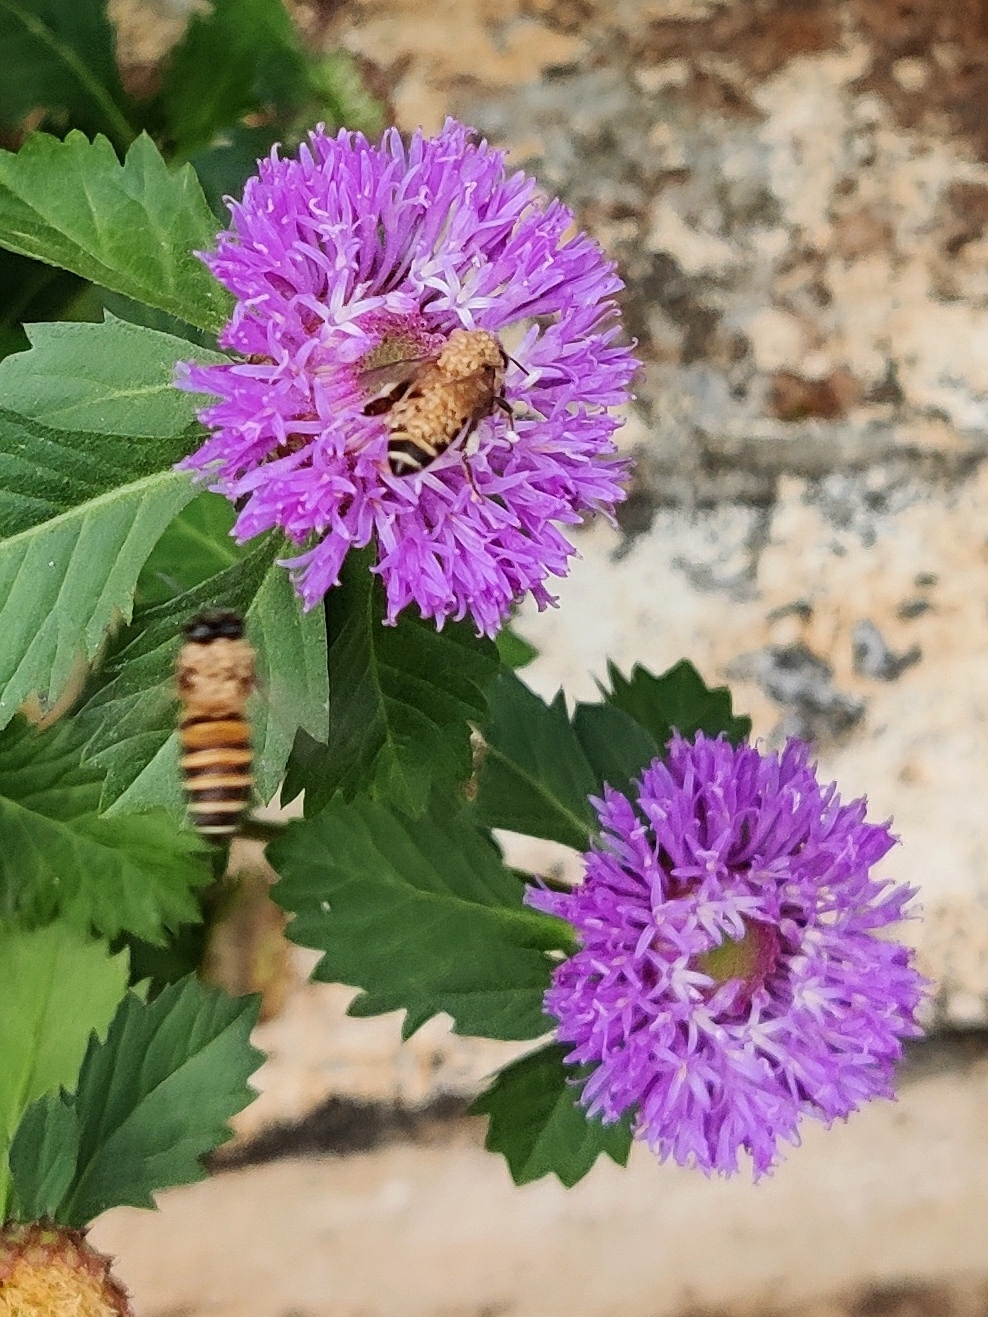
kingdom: Animalia
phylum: Arthropoda
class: Insecta
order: Hymenoptera
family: Apidae
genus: Apis
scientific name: Apis cerana
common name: Honey bee
